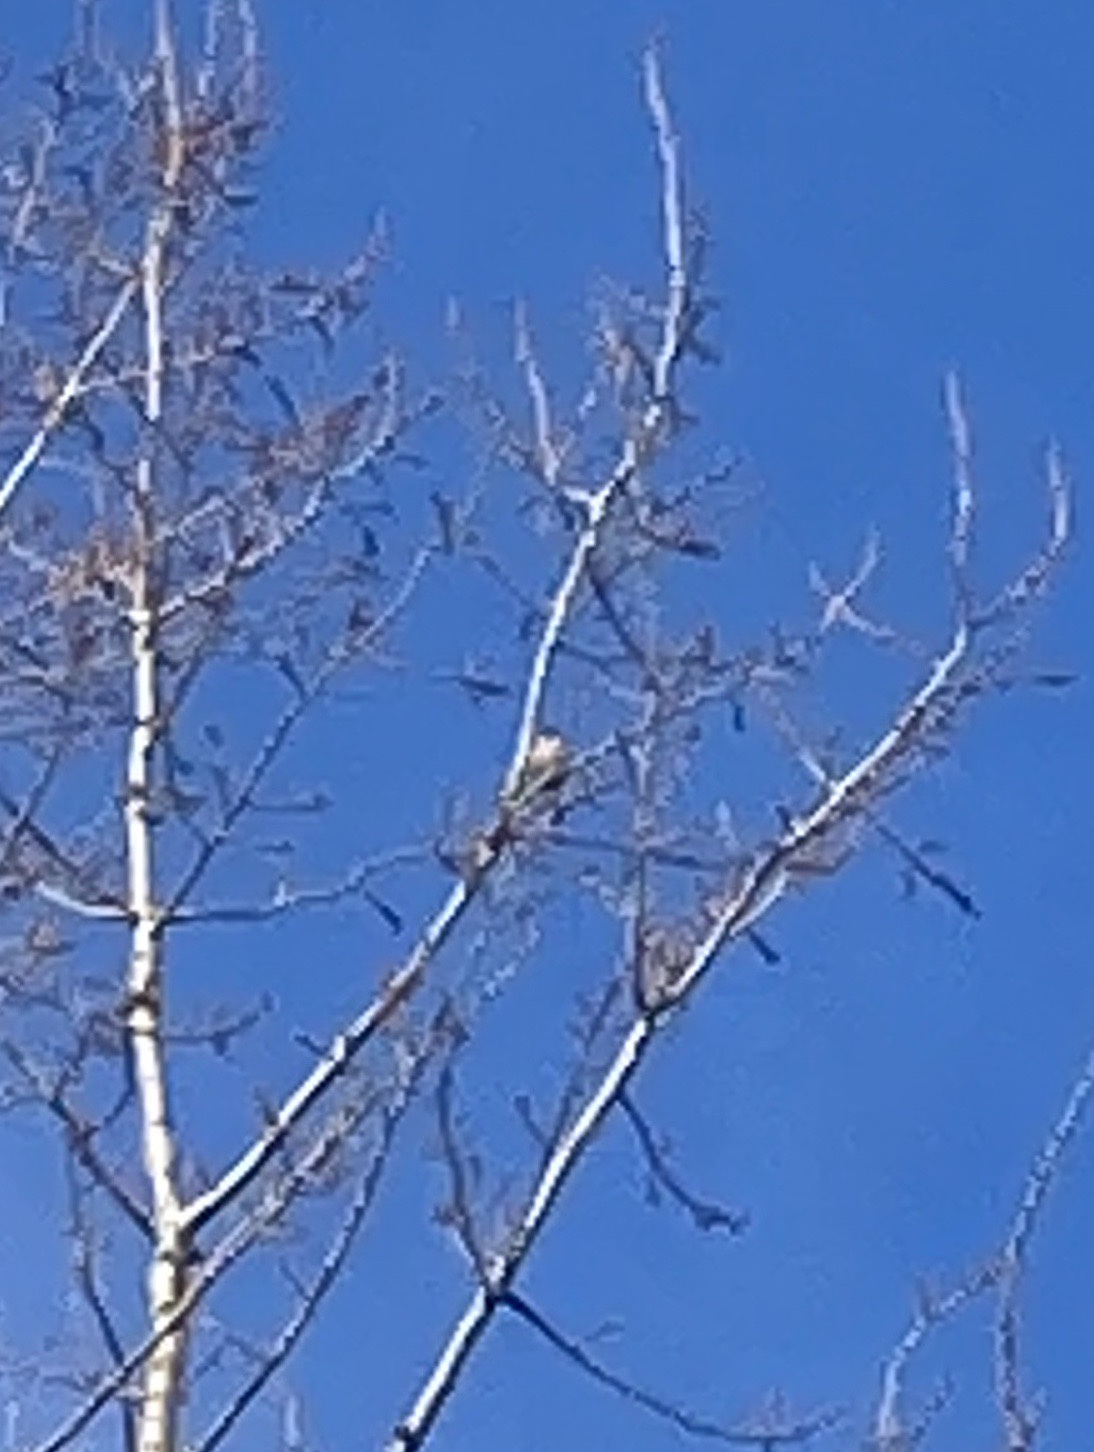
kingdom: Animalia
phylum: Chordata
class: Aves
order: Passeriformes
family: Fringillidae
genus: Pyrrhula
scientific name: Pyrrhula pyrrhula
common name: Eurasian bullfinch
